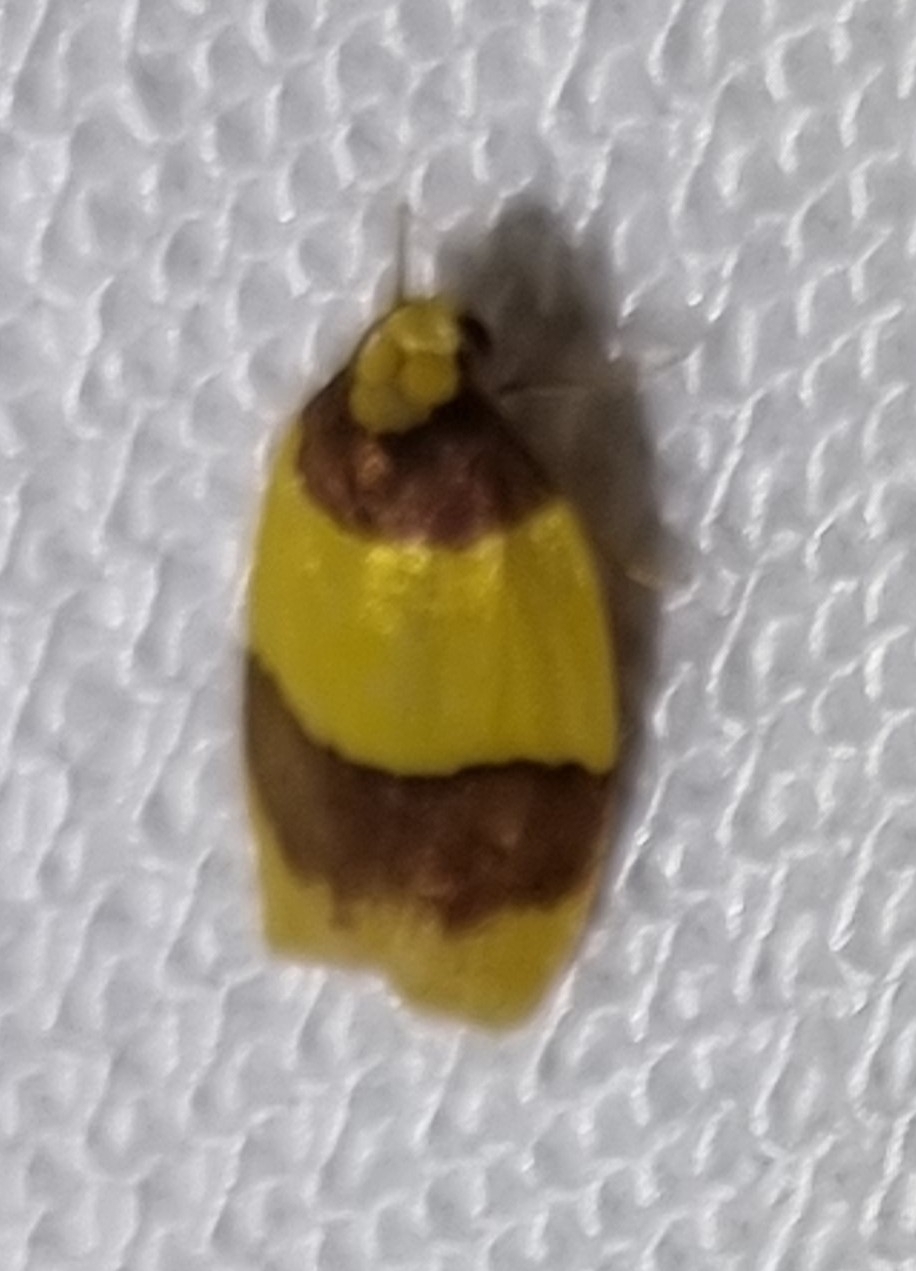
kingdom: Animalia
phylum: Arthropoda
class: Insecta
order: Lepidoptera
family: Erebidae
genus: Heterallactis
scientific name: Heterallactis euchrysa
